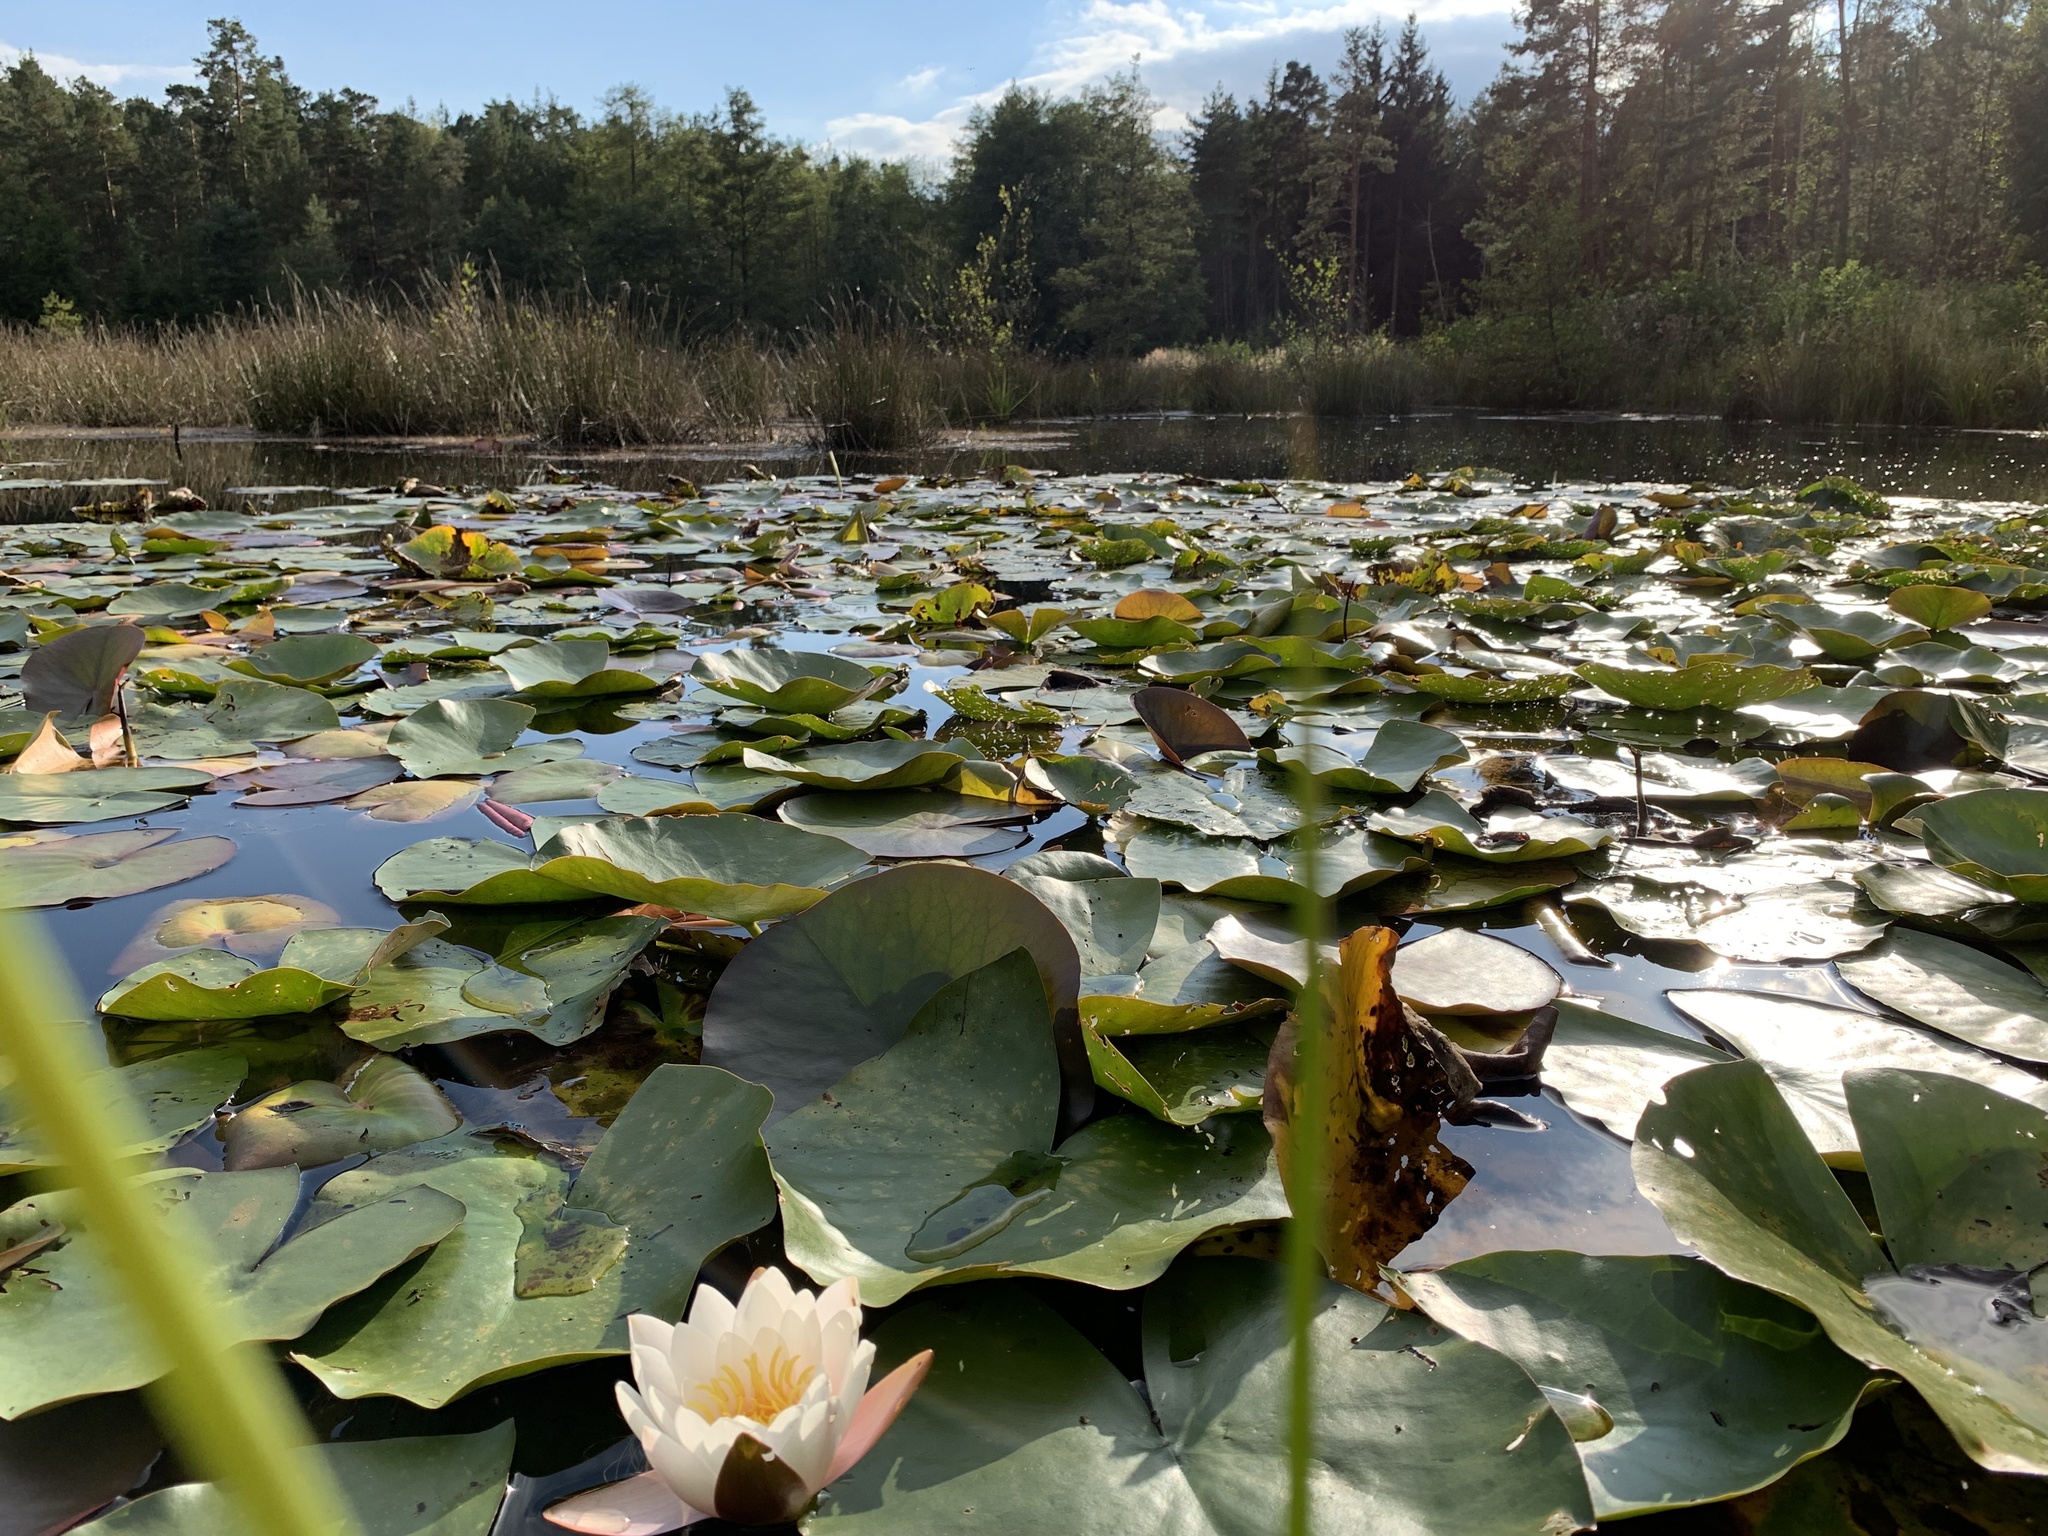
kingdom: Plantae
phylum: Tracheophyta
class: Magnoliopsida
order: Nymphaeales
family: Nymphaeaceae
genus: Nymphaea
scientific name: Nymphaea alba
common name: White water-lily
